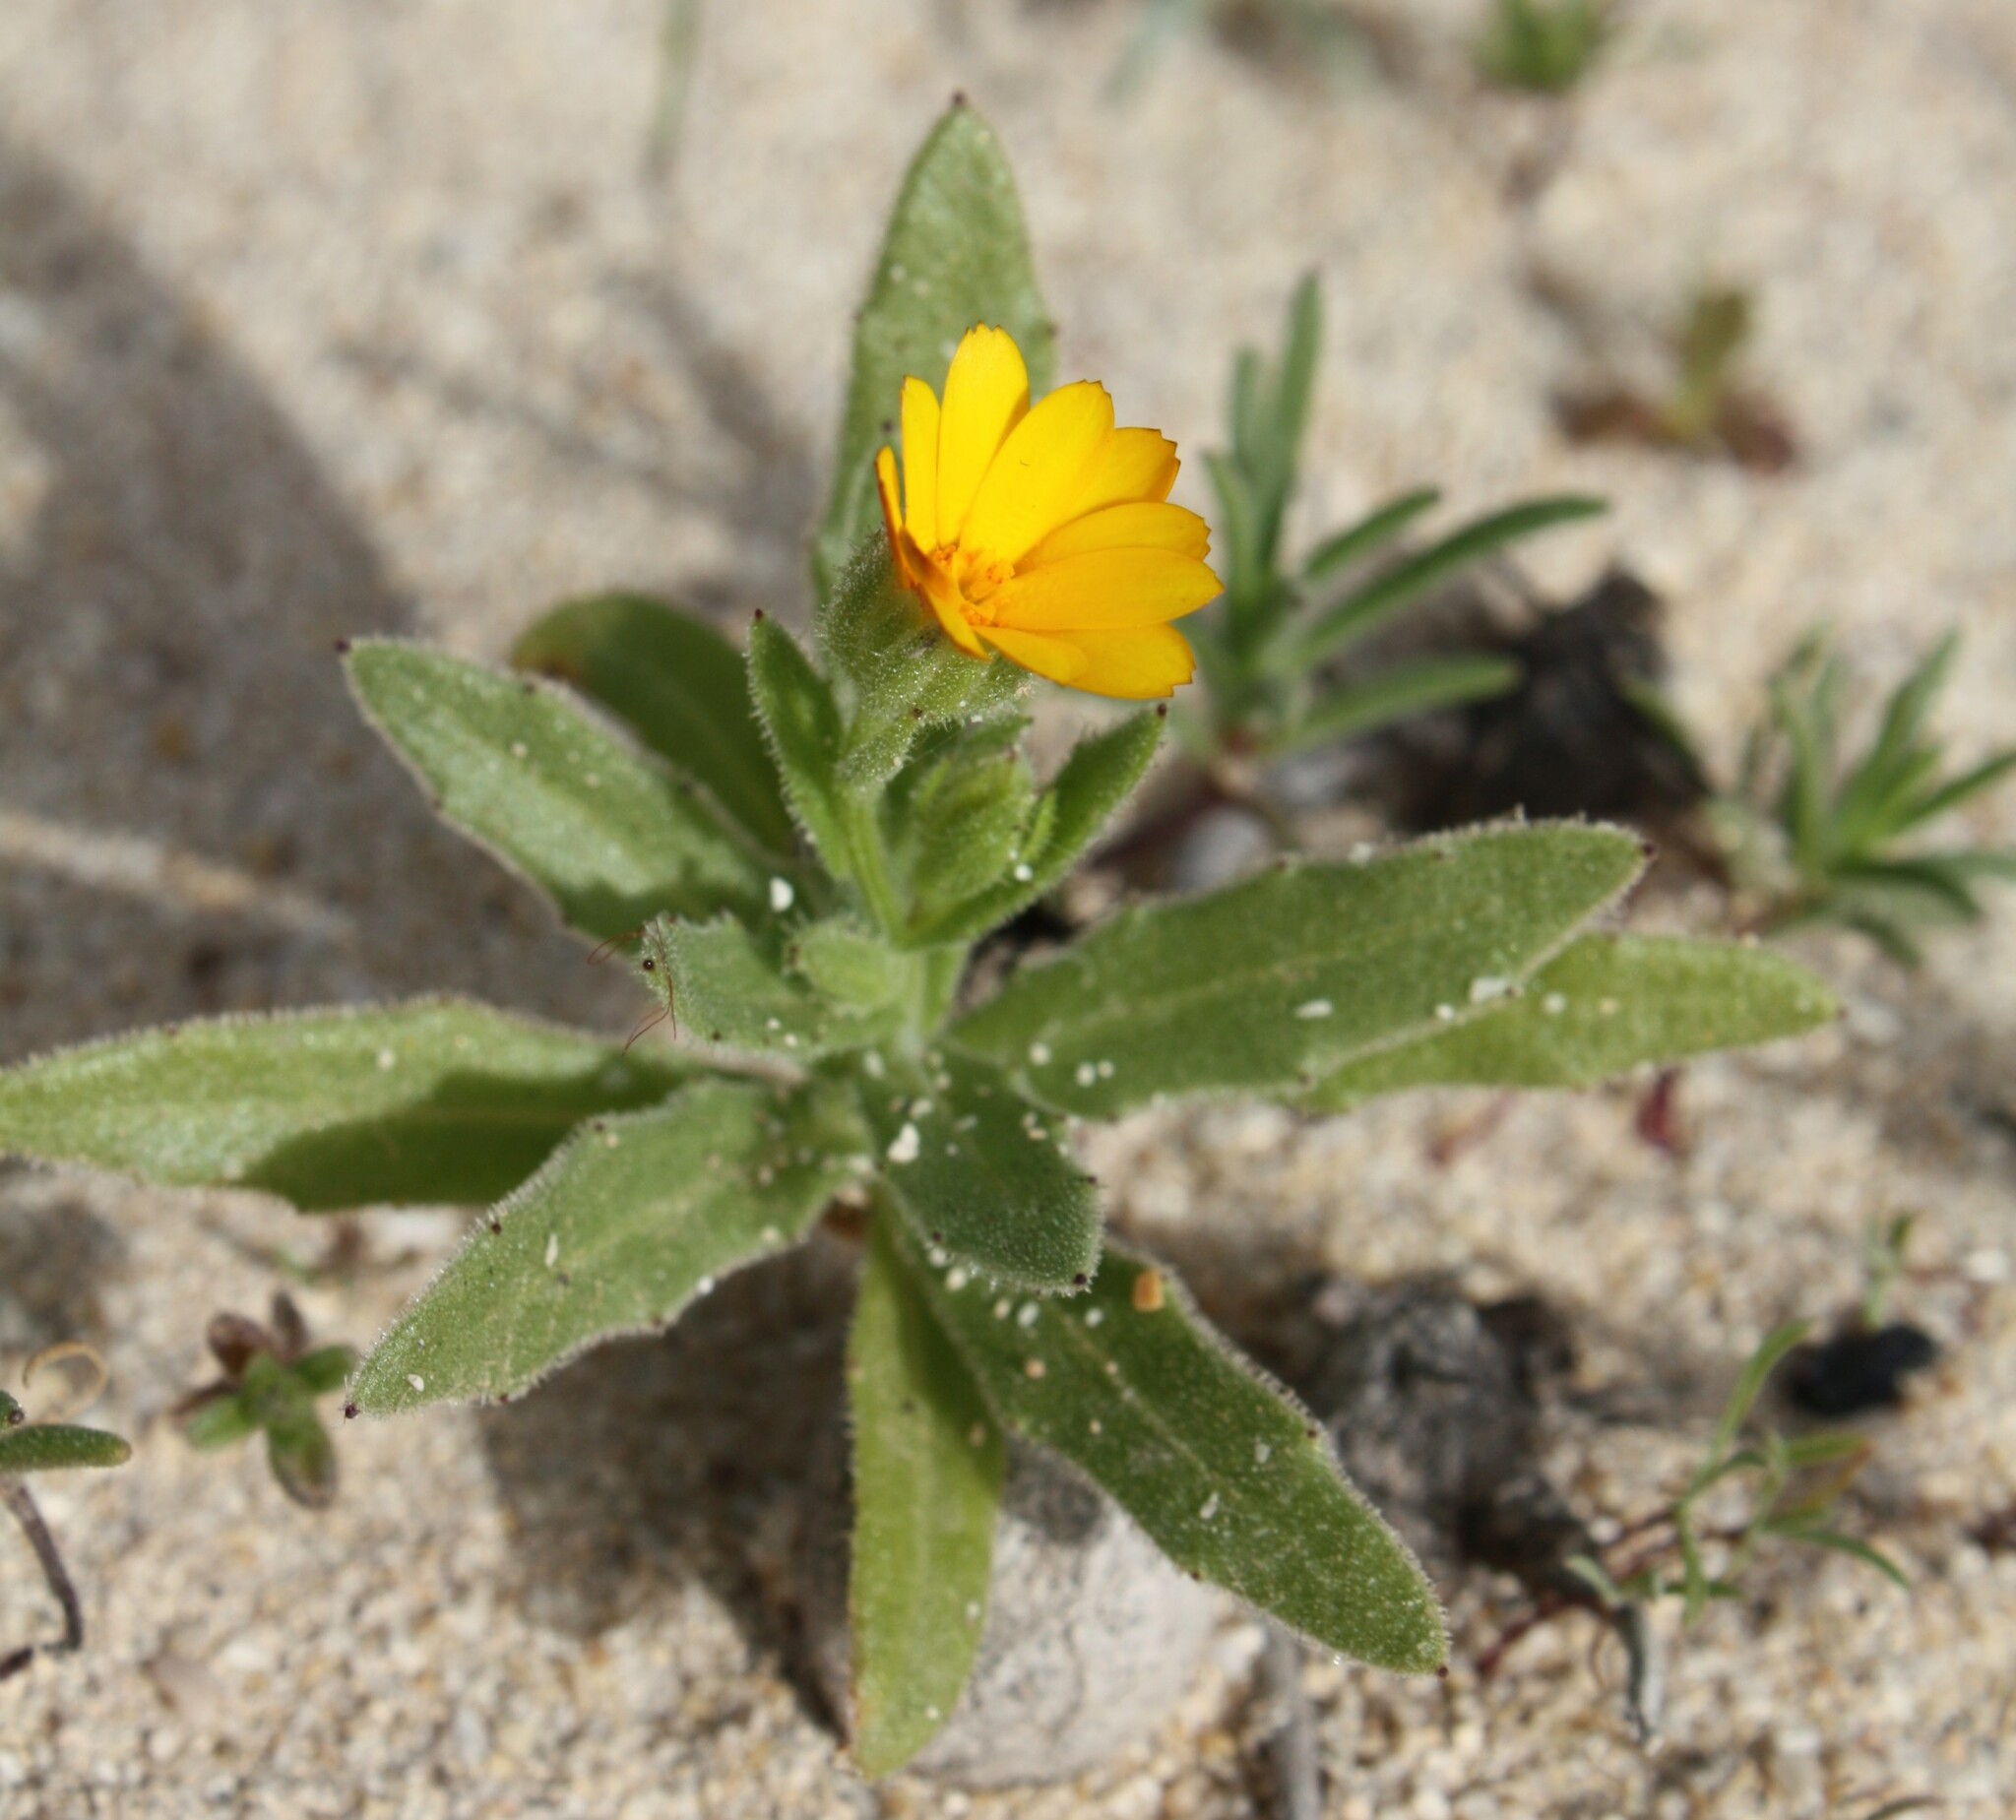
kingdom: Plantae
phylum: Tracheophyta
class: Magnoliopsida
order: Asterales
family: Asteraceae
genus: Calendula
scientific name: Calendula arvensis
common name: Field marigold
